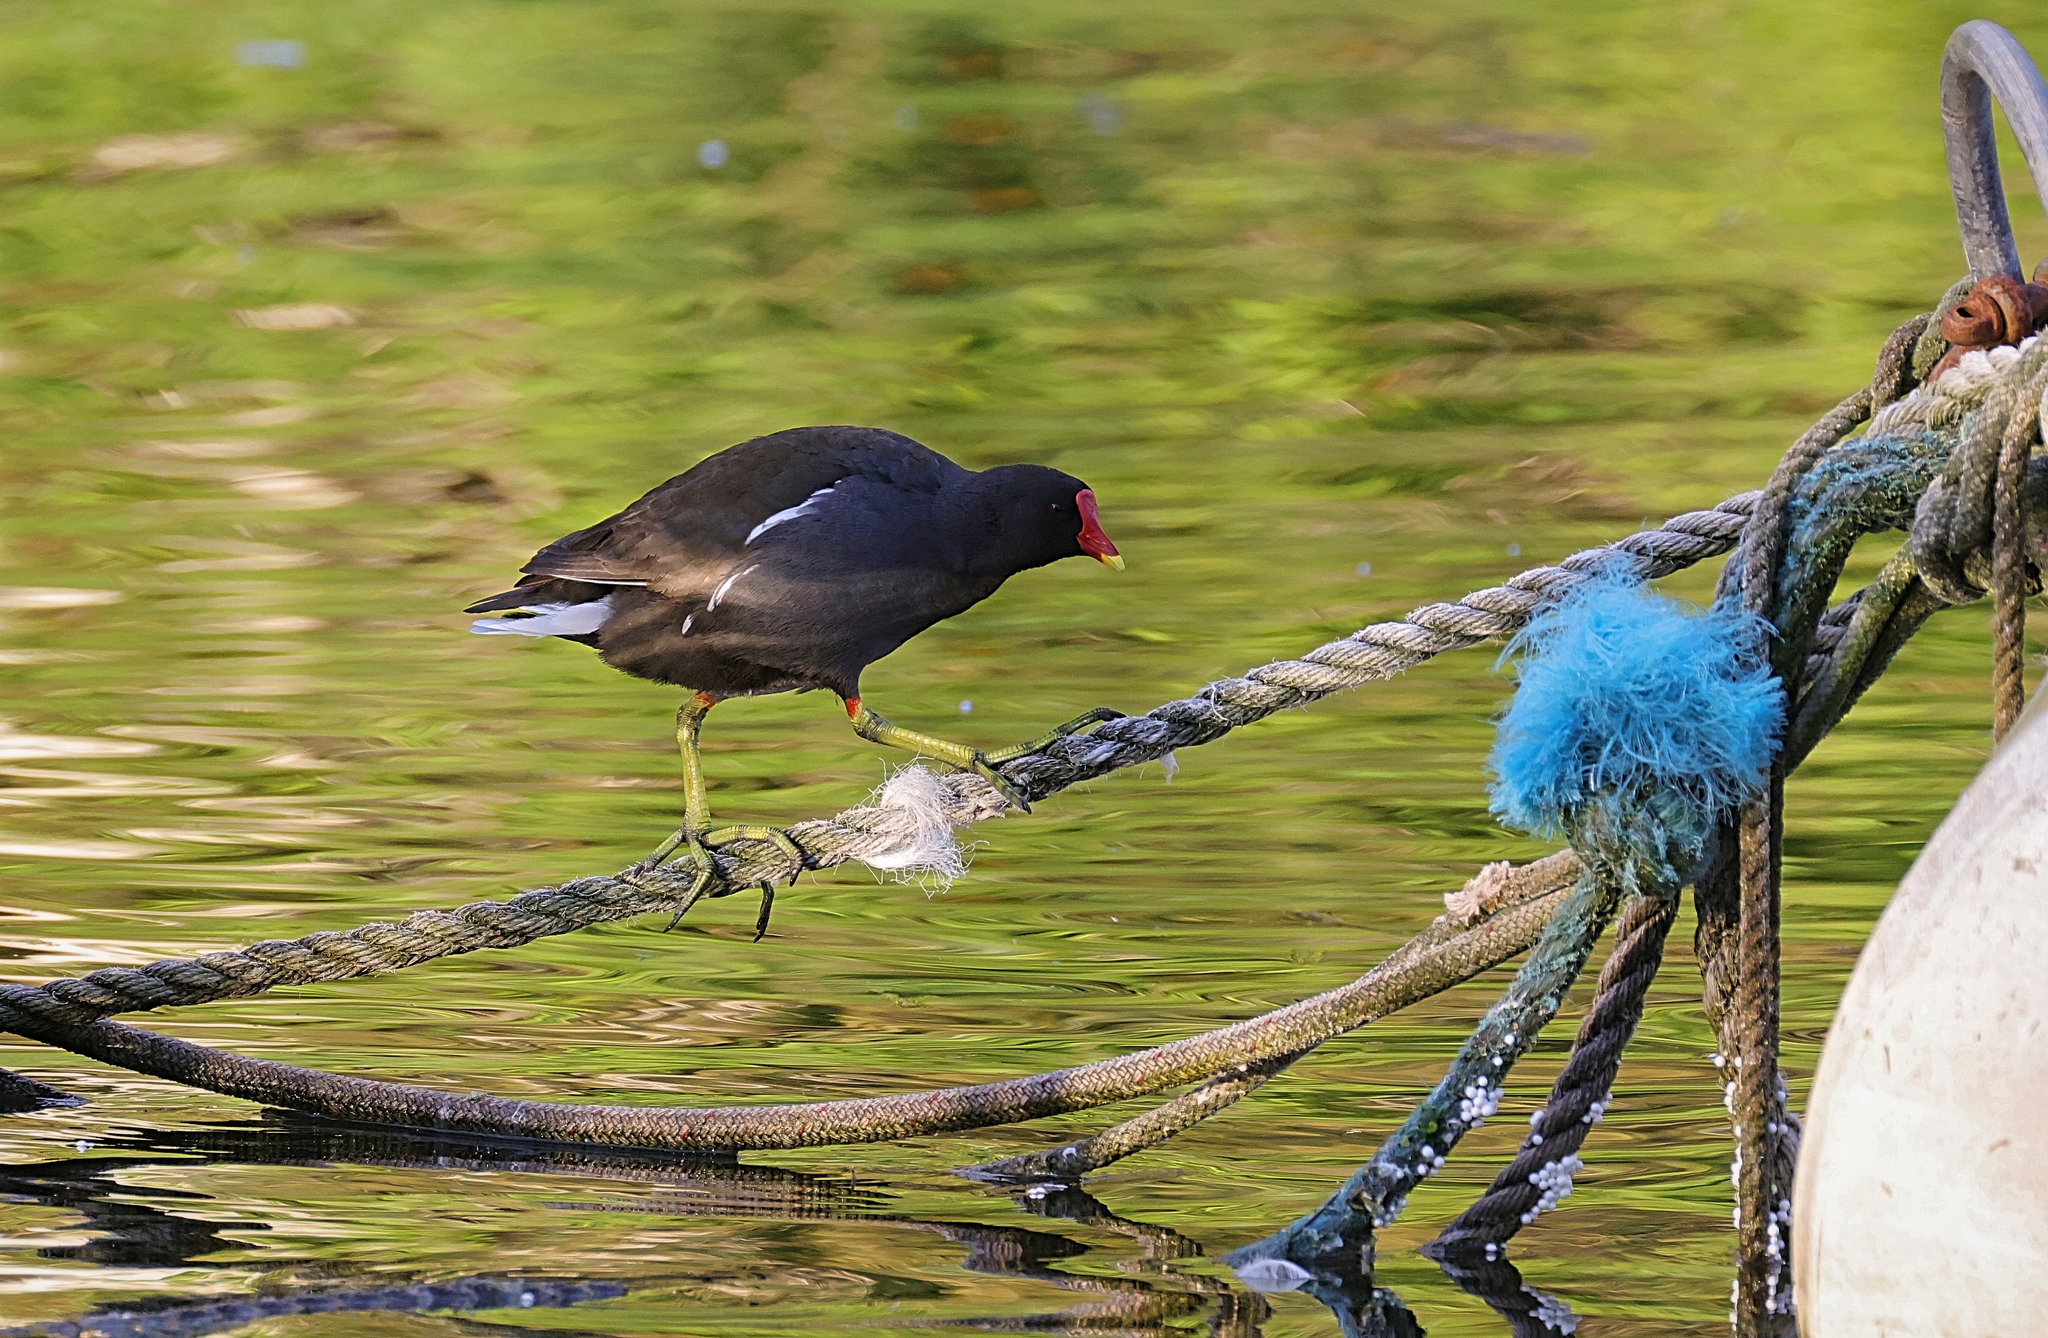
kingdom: Animalia
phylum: Chordata
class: Aves
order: Gruiformes
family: Rallidae
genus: Gallinula
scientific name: Gallinula chloropus
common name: Common moorhen
